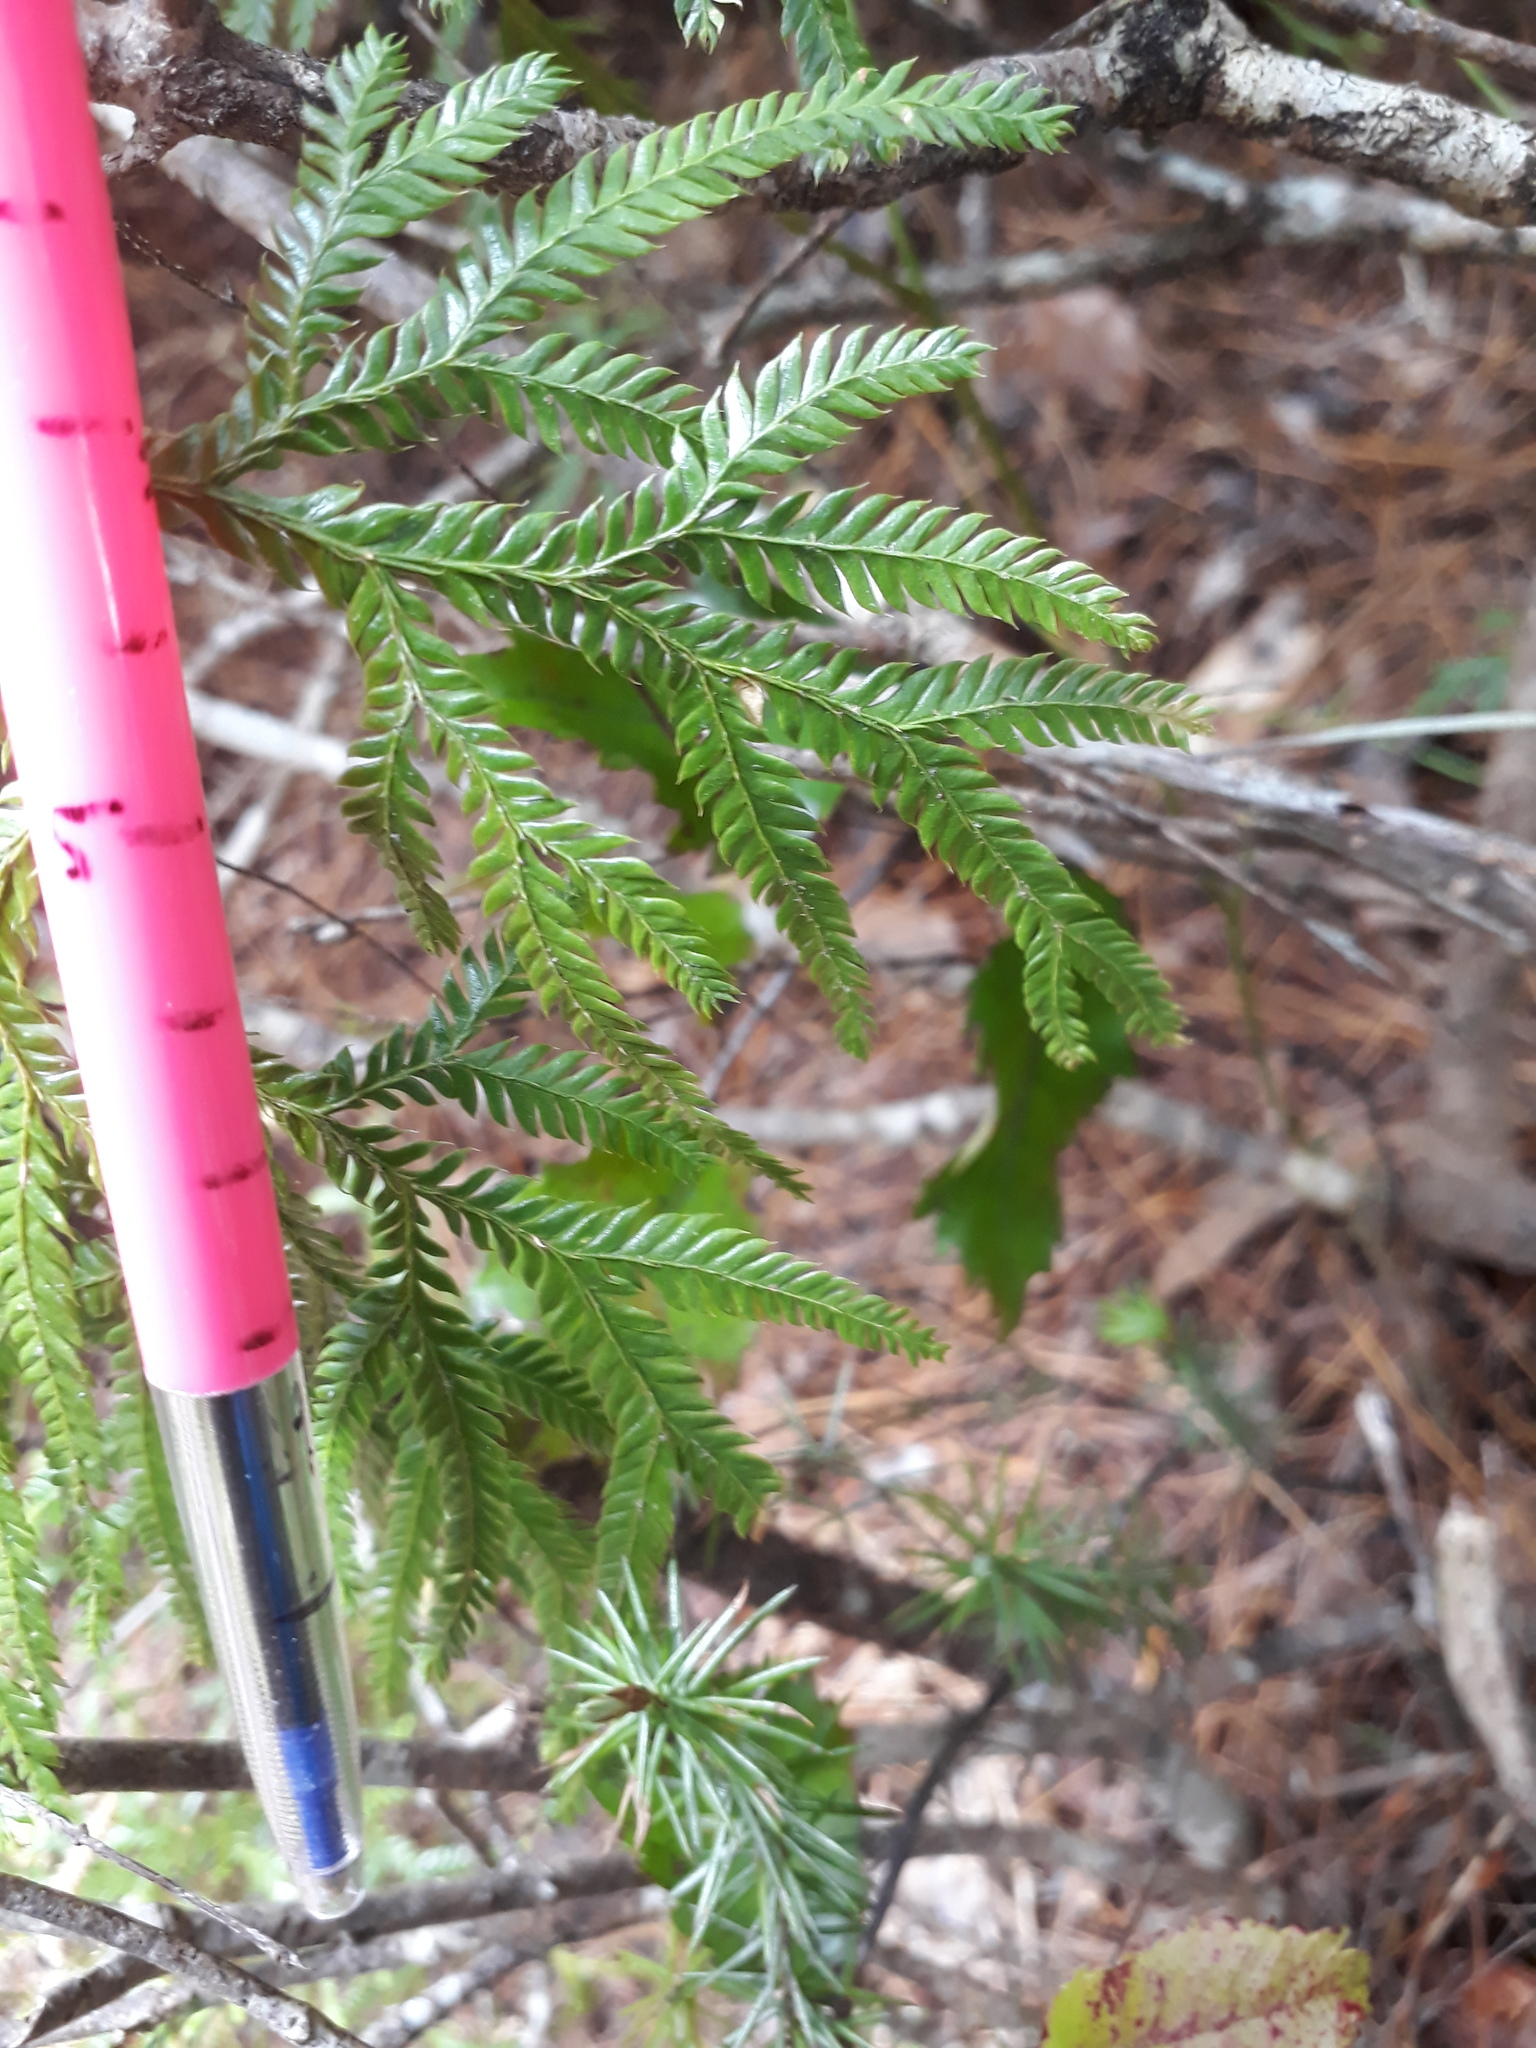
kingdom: Plantae
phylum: Tracheophyta
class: Lycopodiopsida
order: Lycopodiales
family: Lycopodiaceae
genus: Lycopodium
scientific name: Lycopodium volubile
